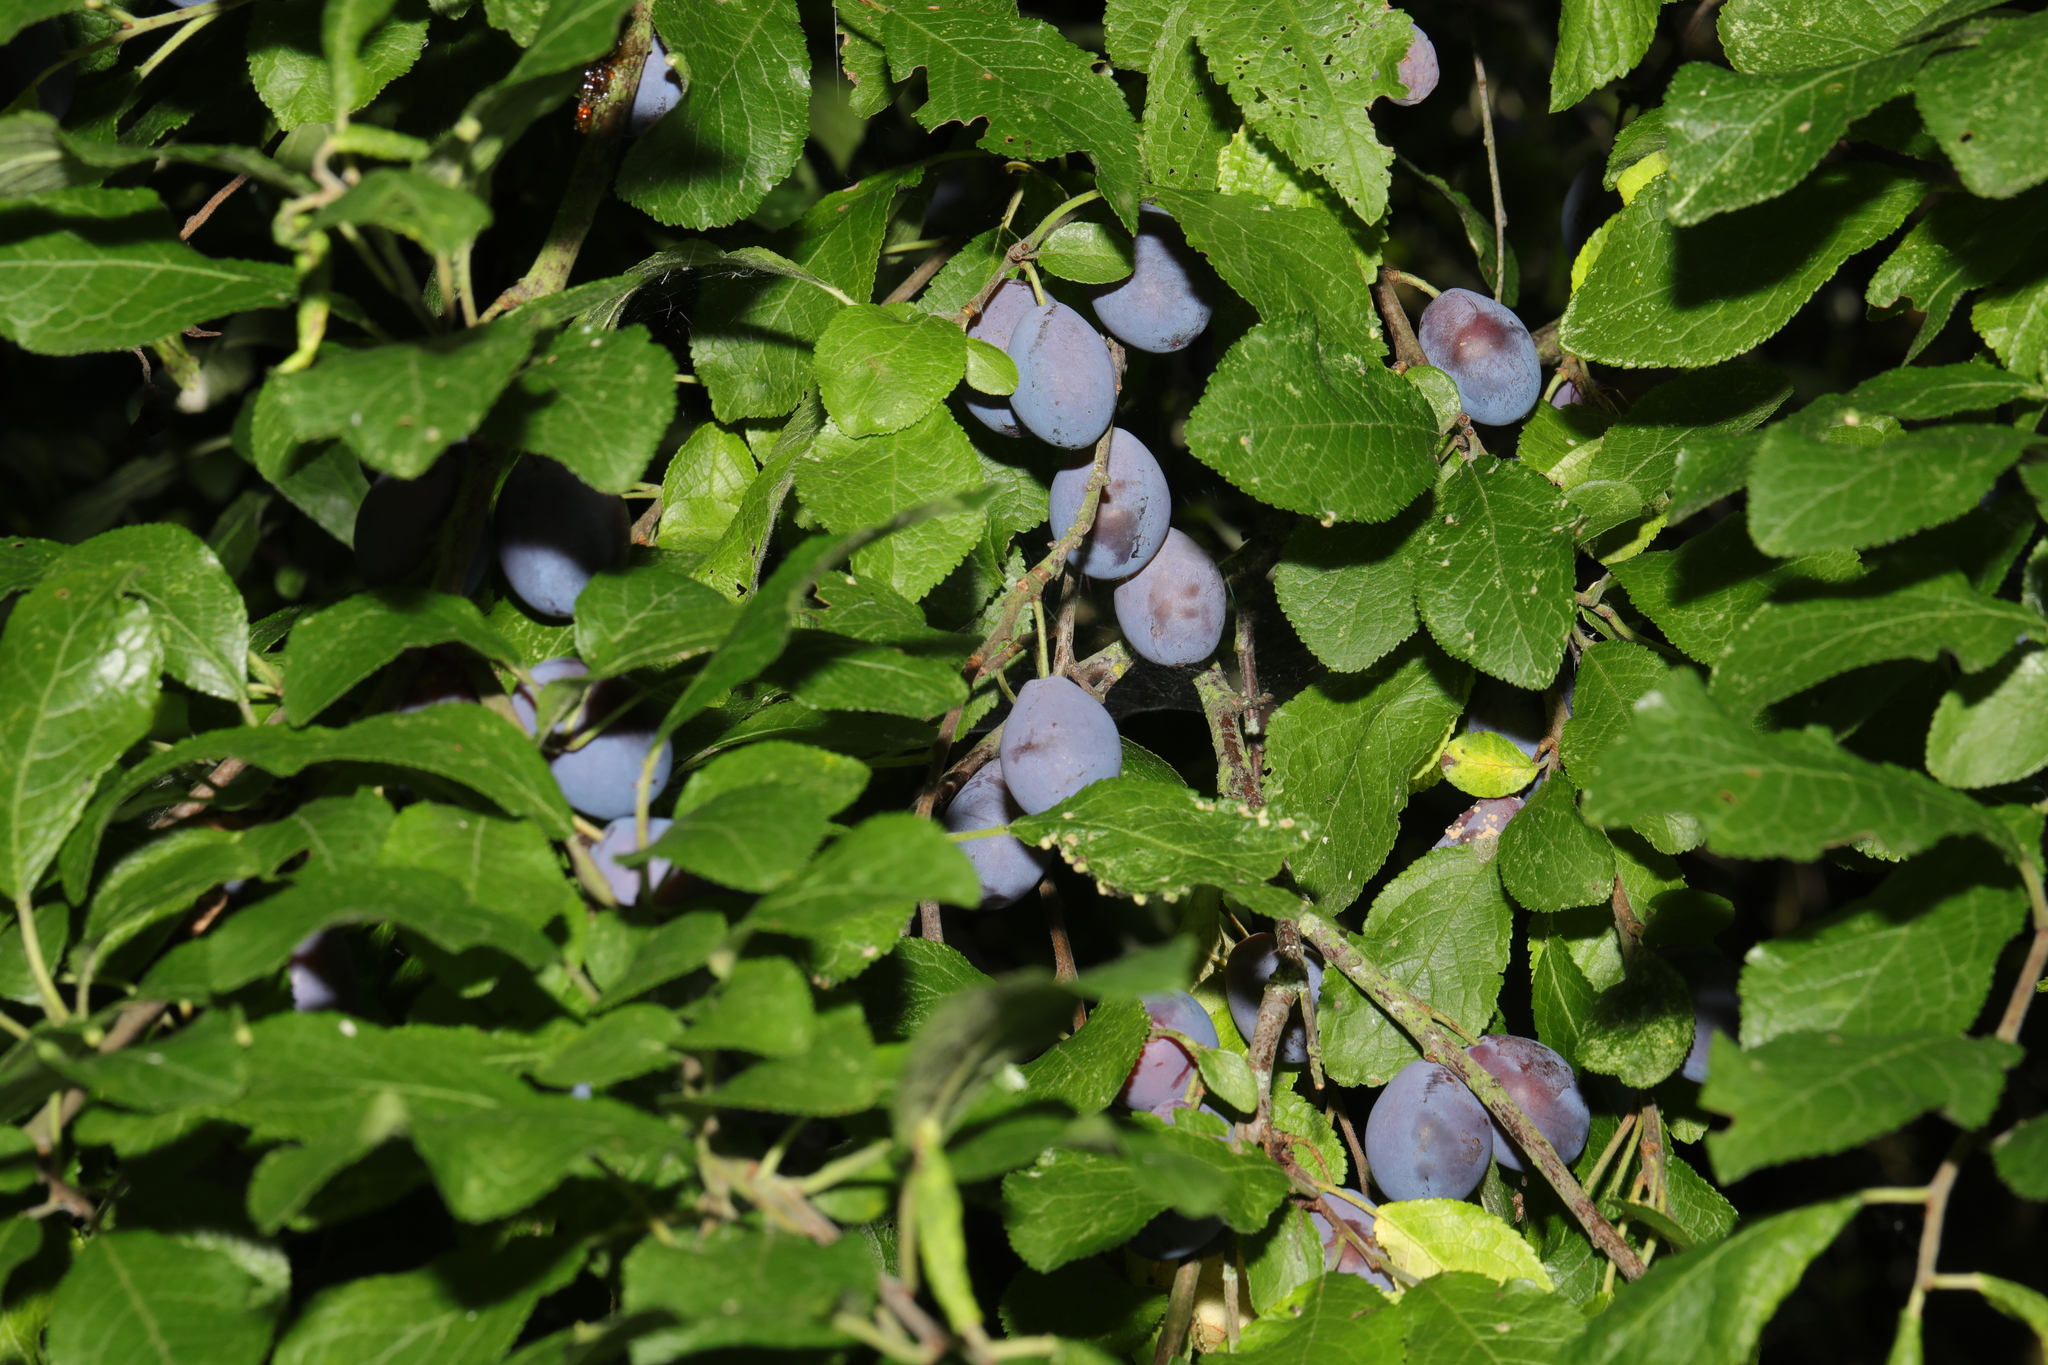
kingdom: Plantae
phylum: Tracheophyta
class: Magnoliopsida
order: Rosales
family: Rosaceae
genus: Prunus
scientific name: Prunus
